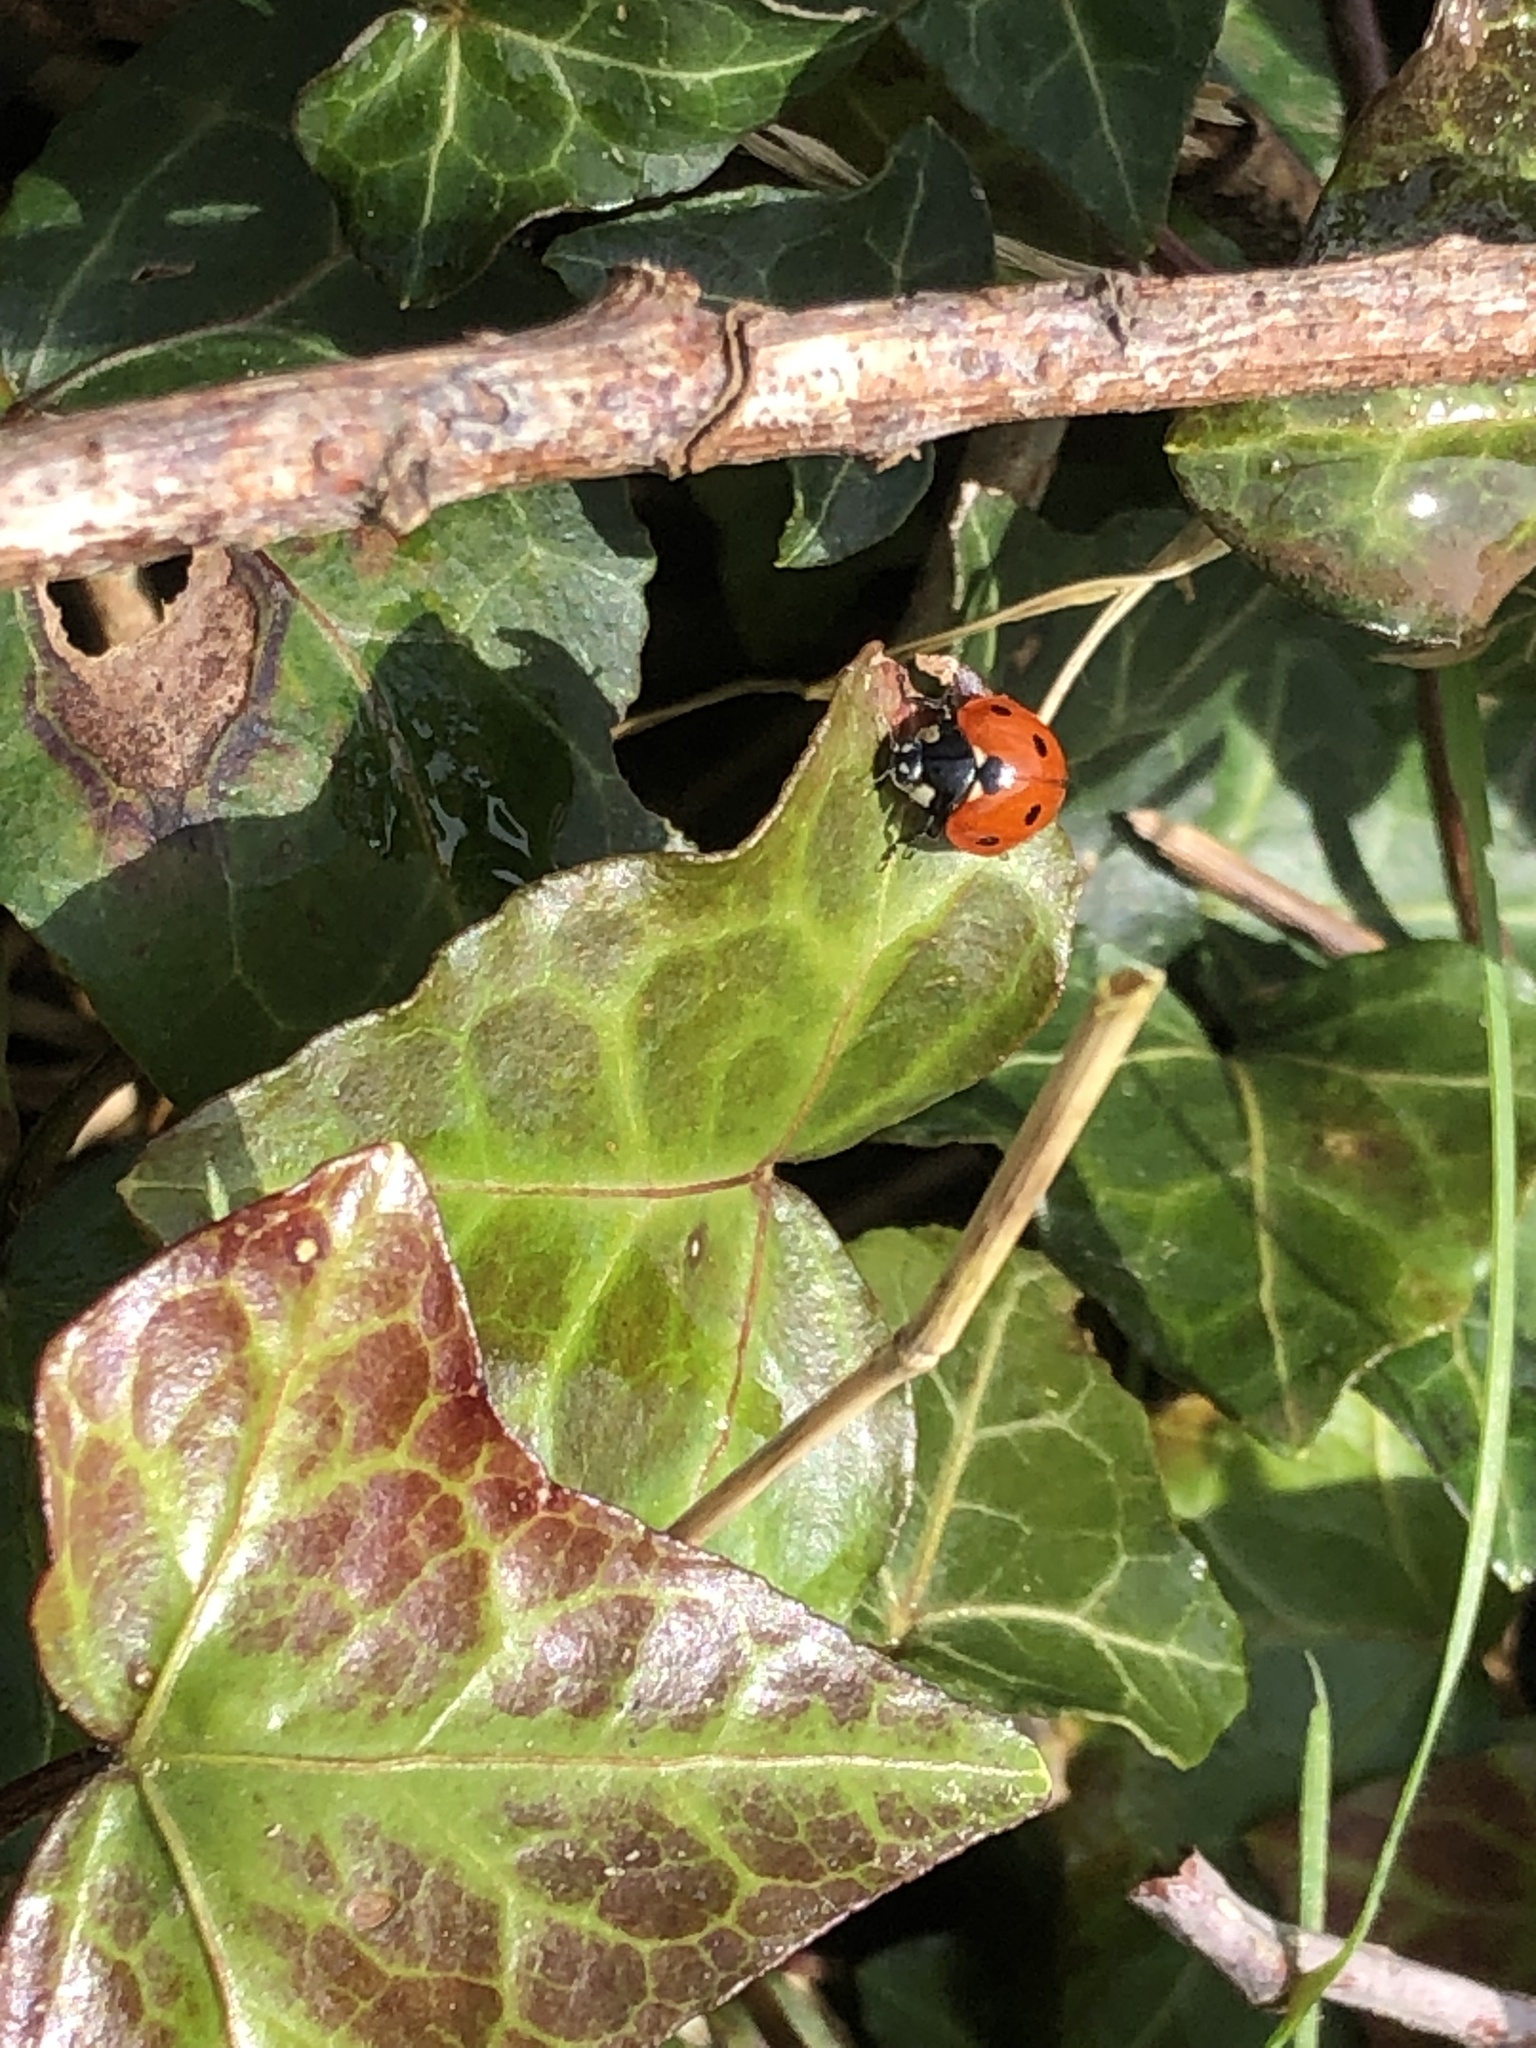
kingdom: Animalia
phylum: Arthropoda
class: Insecta
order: Coleoptera
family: Coccinellidae
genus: Coccinella
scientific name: Coccinella septempunctata
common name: Sevenspotted lady beetle
